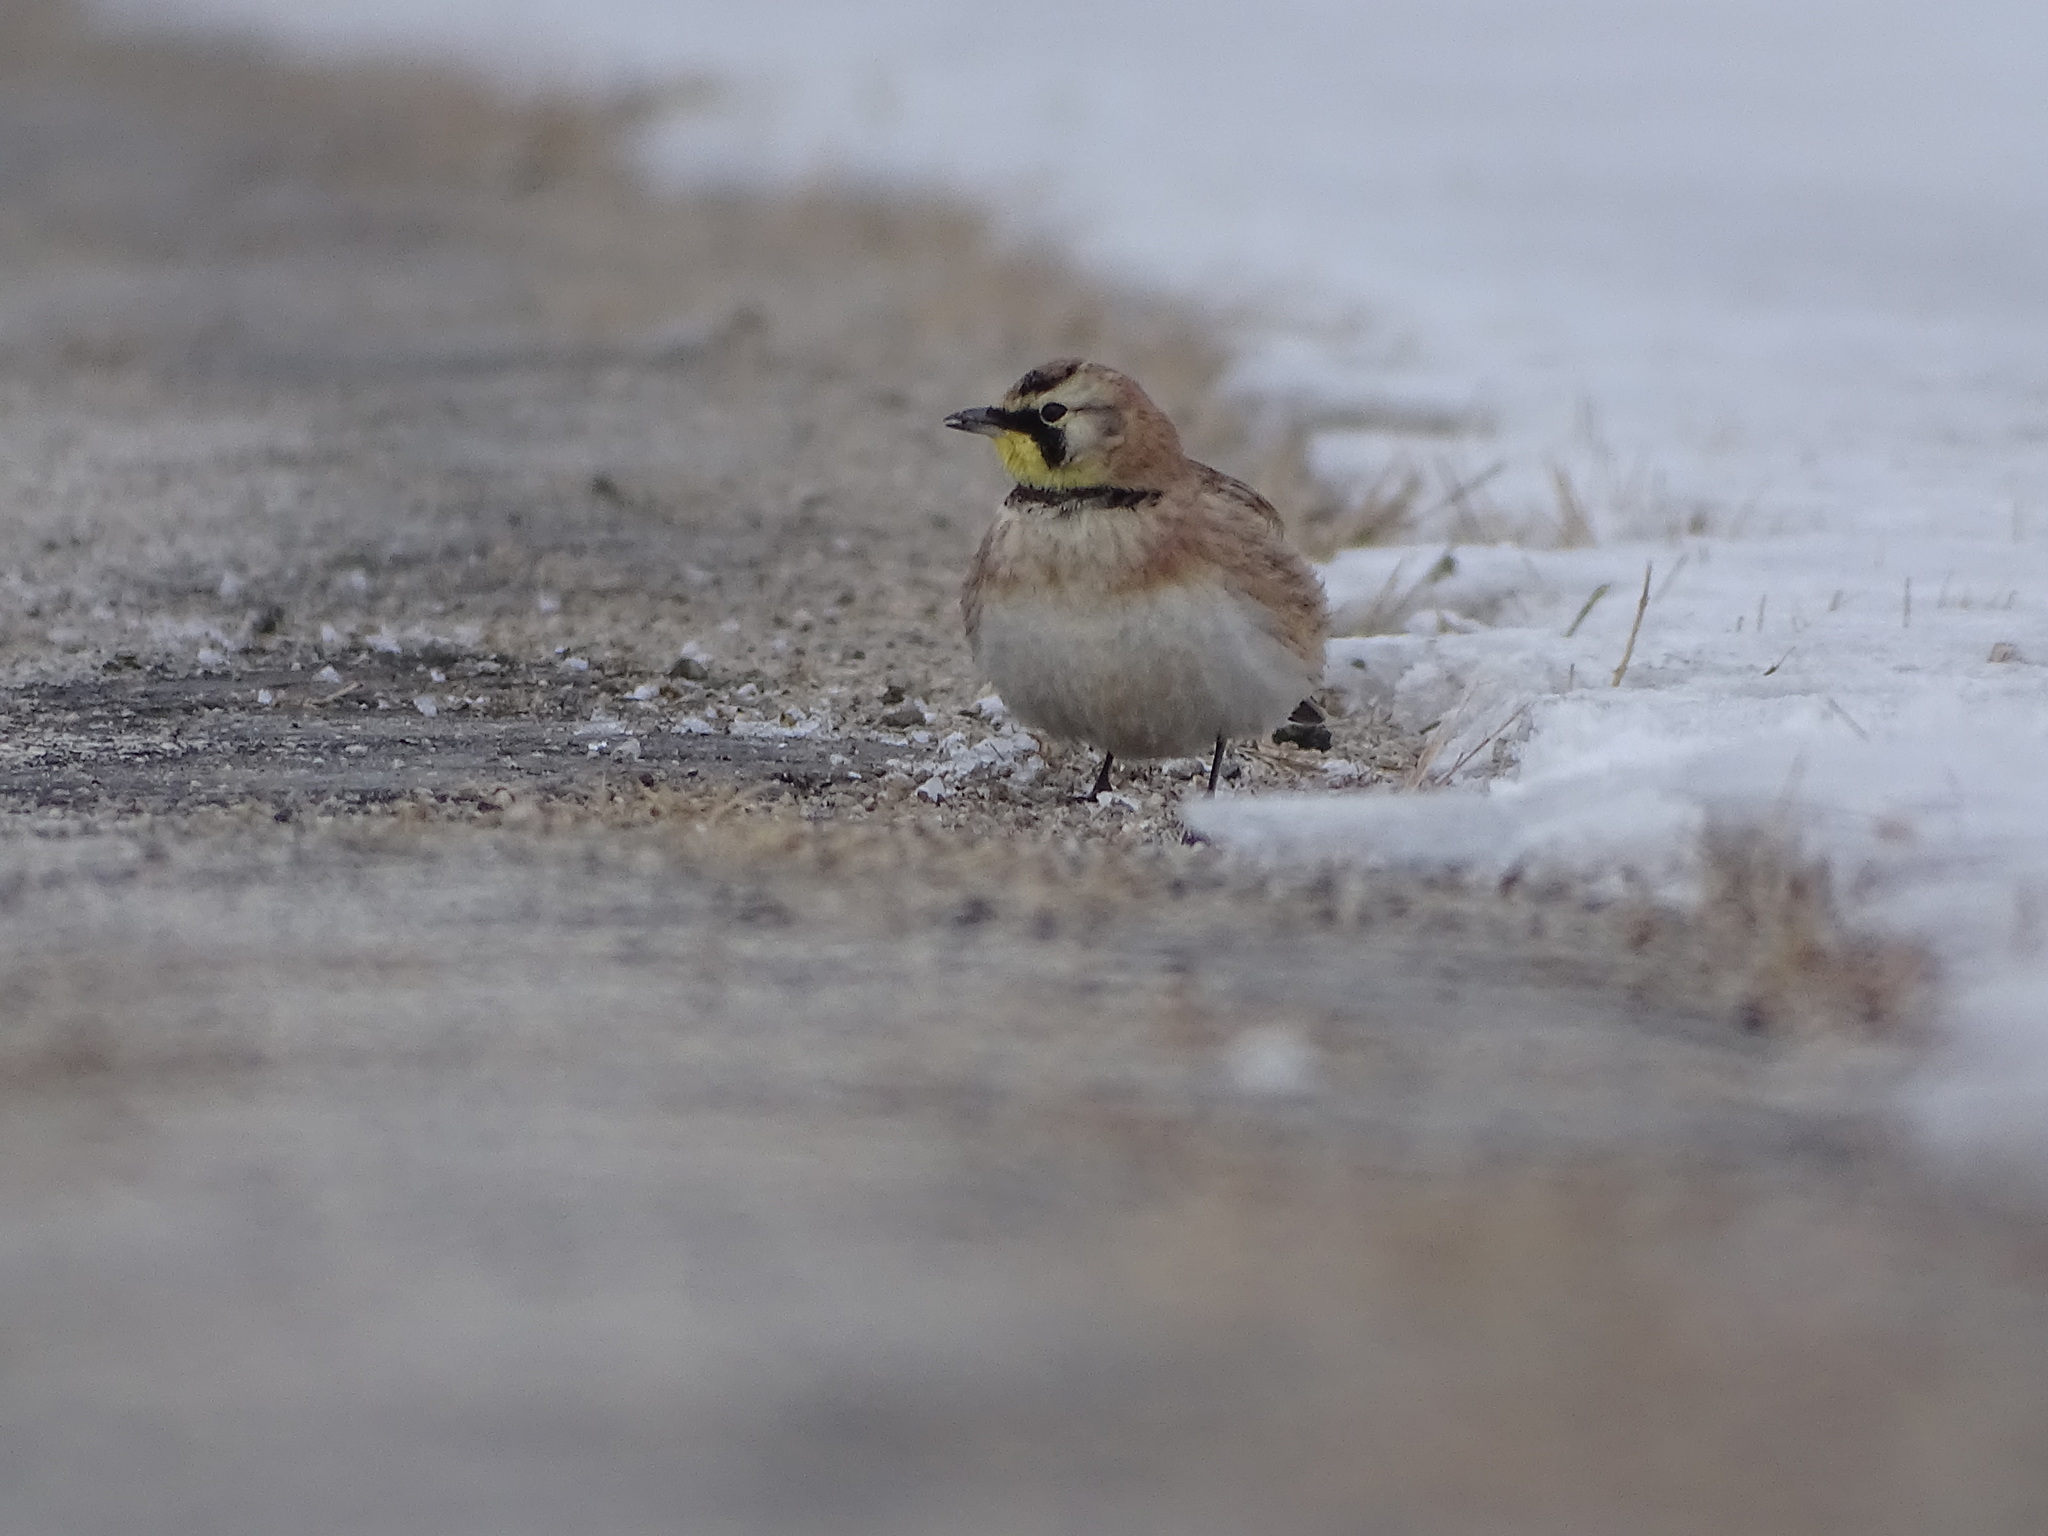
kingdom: Animalia
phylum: Chordata
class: Aves
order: Passeriformes
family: Alaudidae
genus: Eremophila
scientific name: Eremophila alpestris
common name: Horned lark
